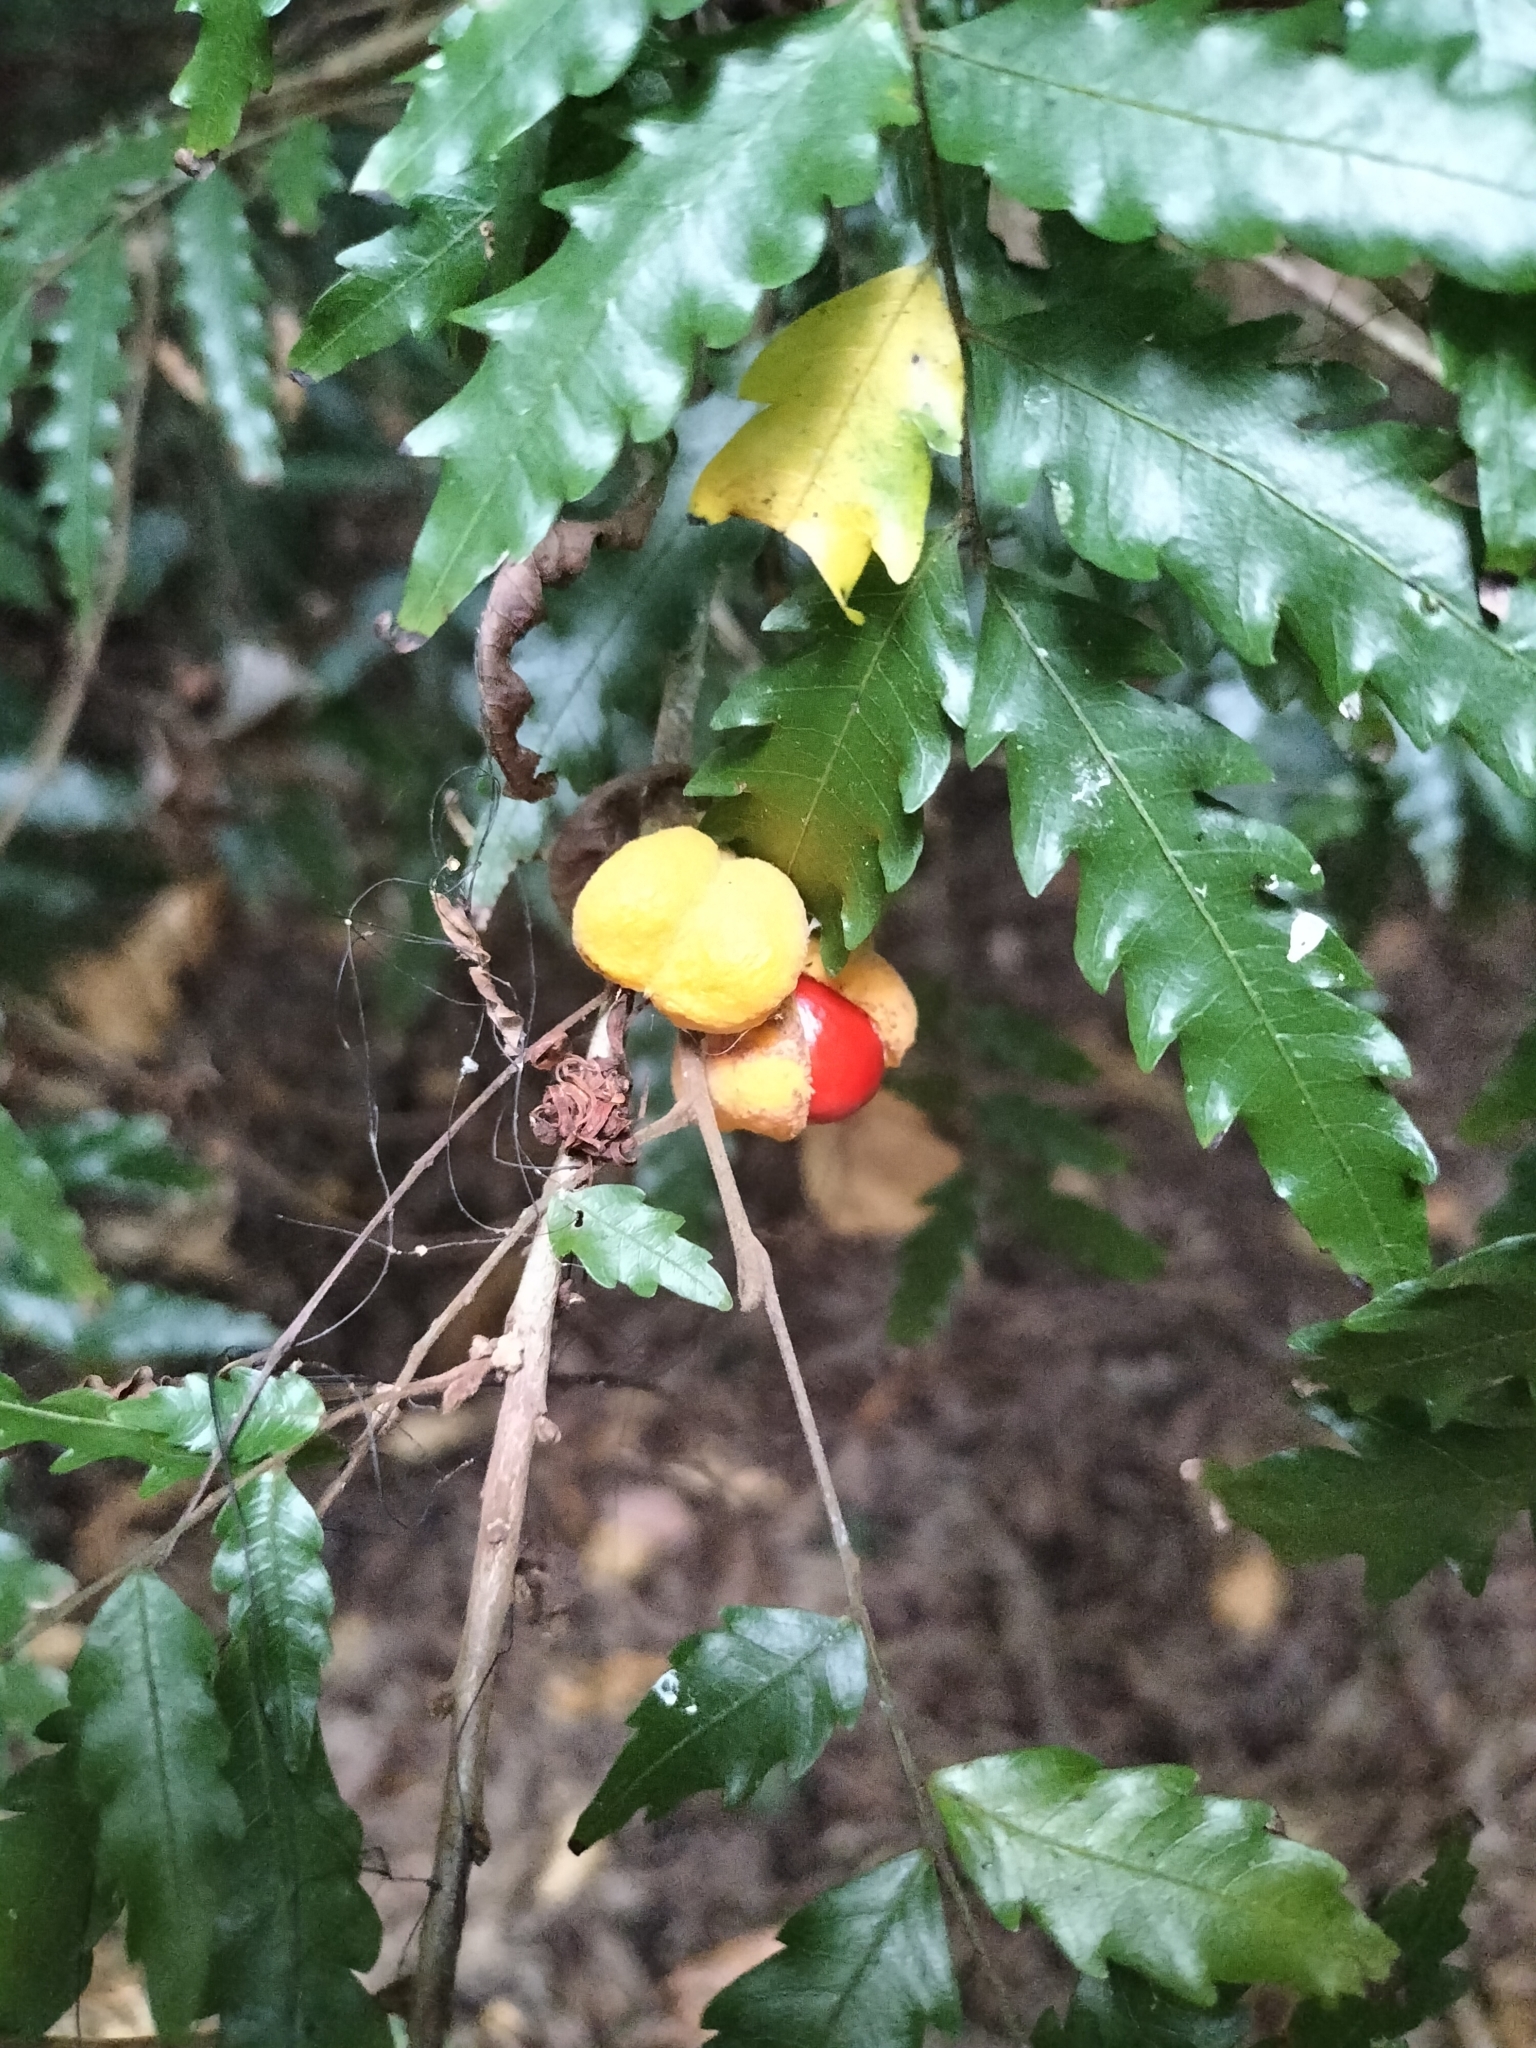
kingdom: Plantae
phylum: Tracheophyta
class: Magnoliopsida
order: Sapindales
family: Sapindaceae
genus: Synima
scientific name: Synima serrata
